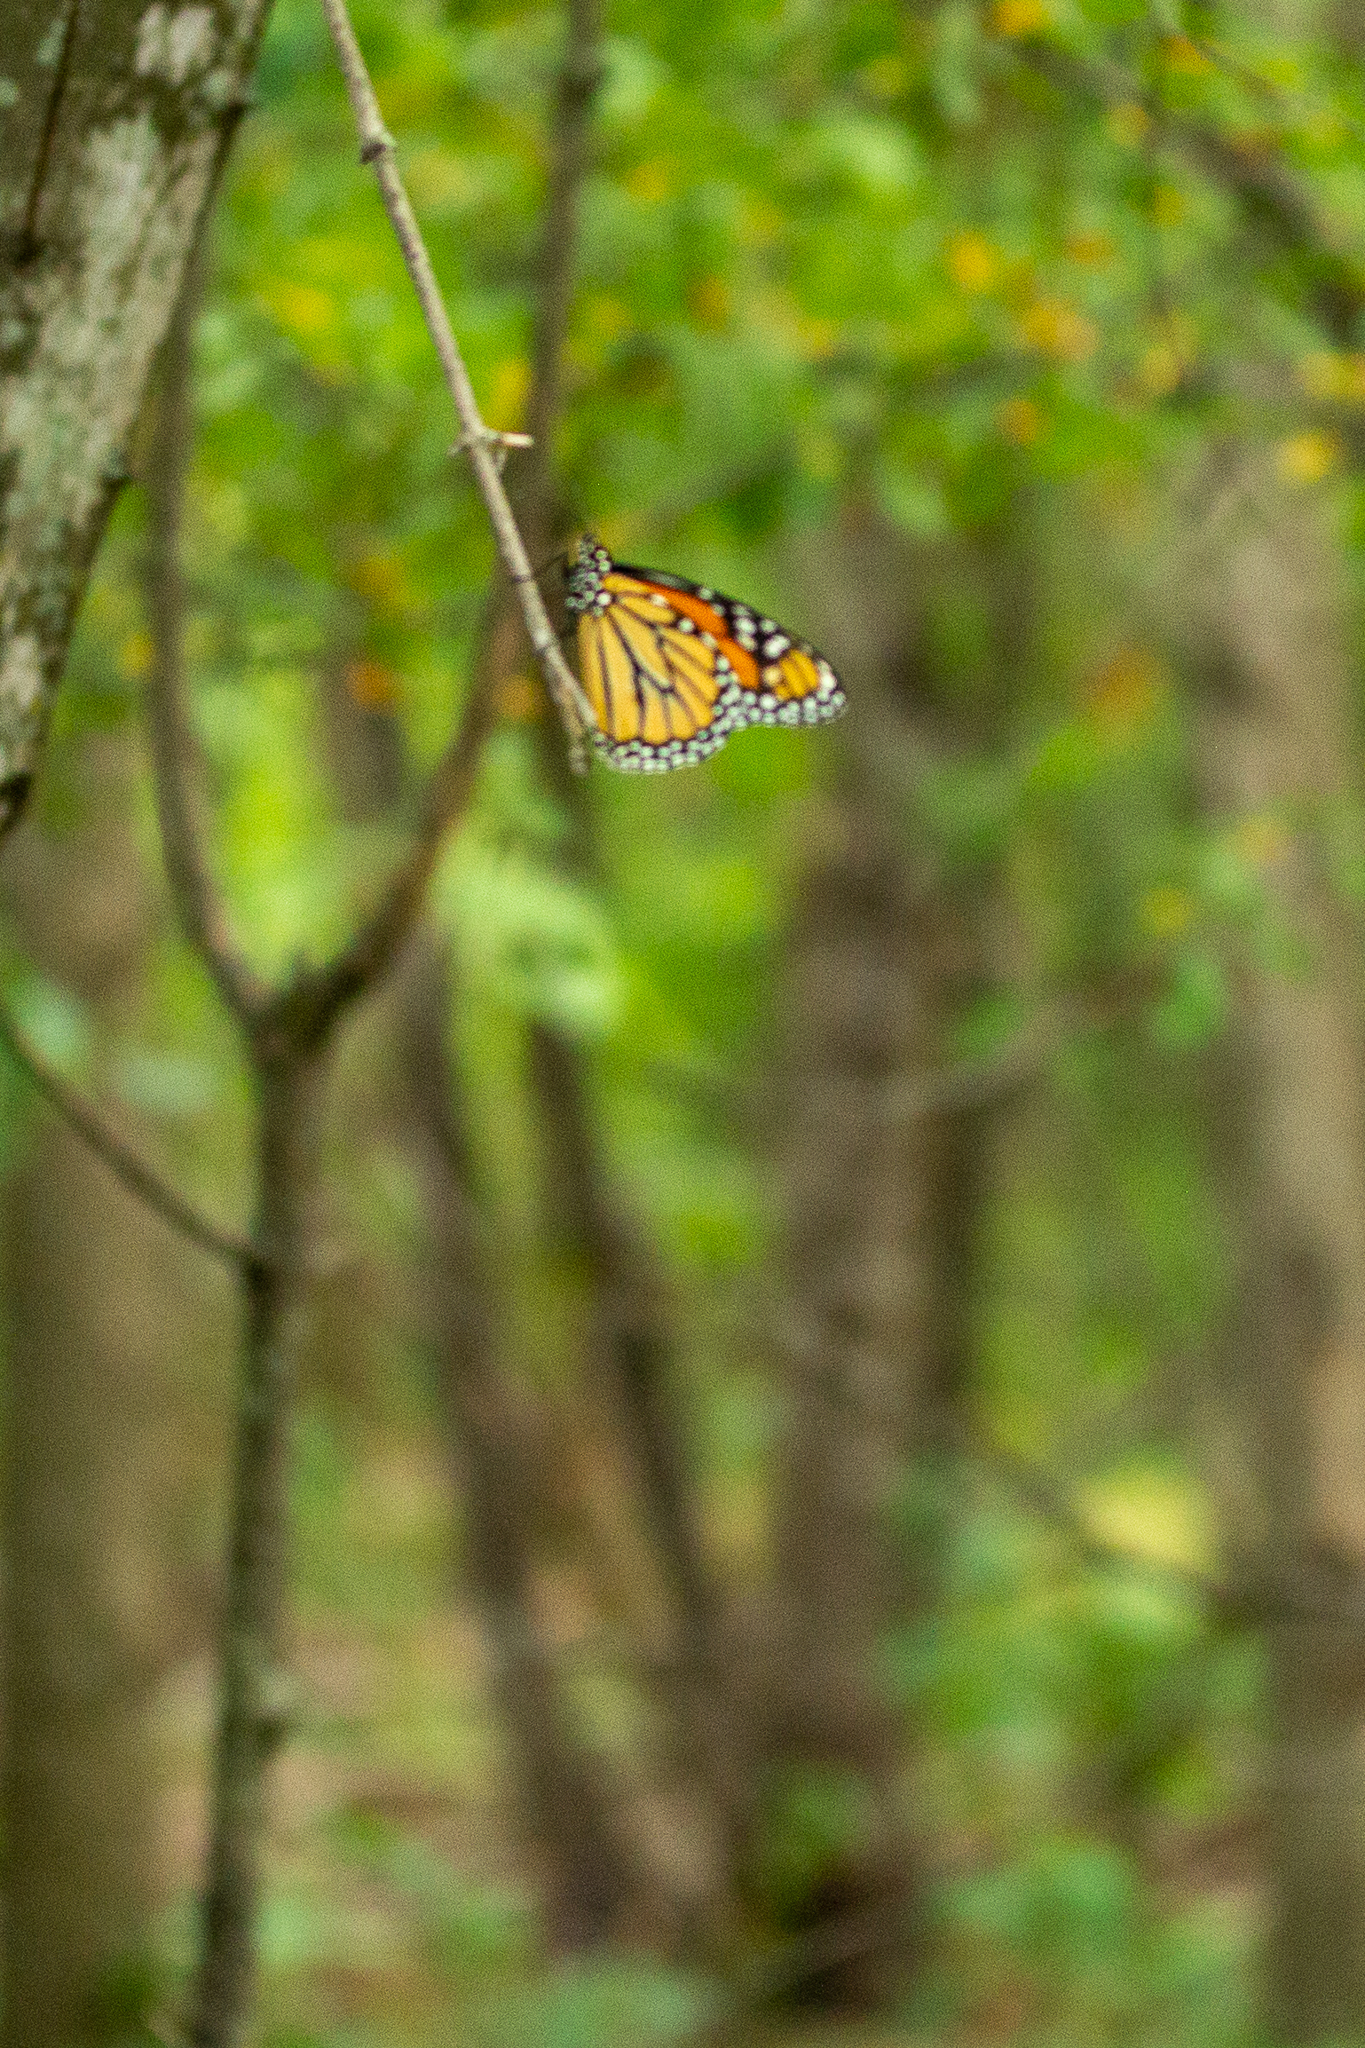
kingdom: Animalia
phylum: Arthropoda
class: Insecta
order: Lepidoptera
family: Nymphalidae
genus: Danaus
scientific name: Danaus plexippus
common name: Monarch
